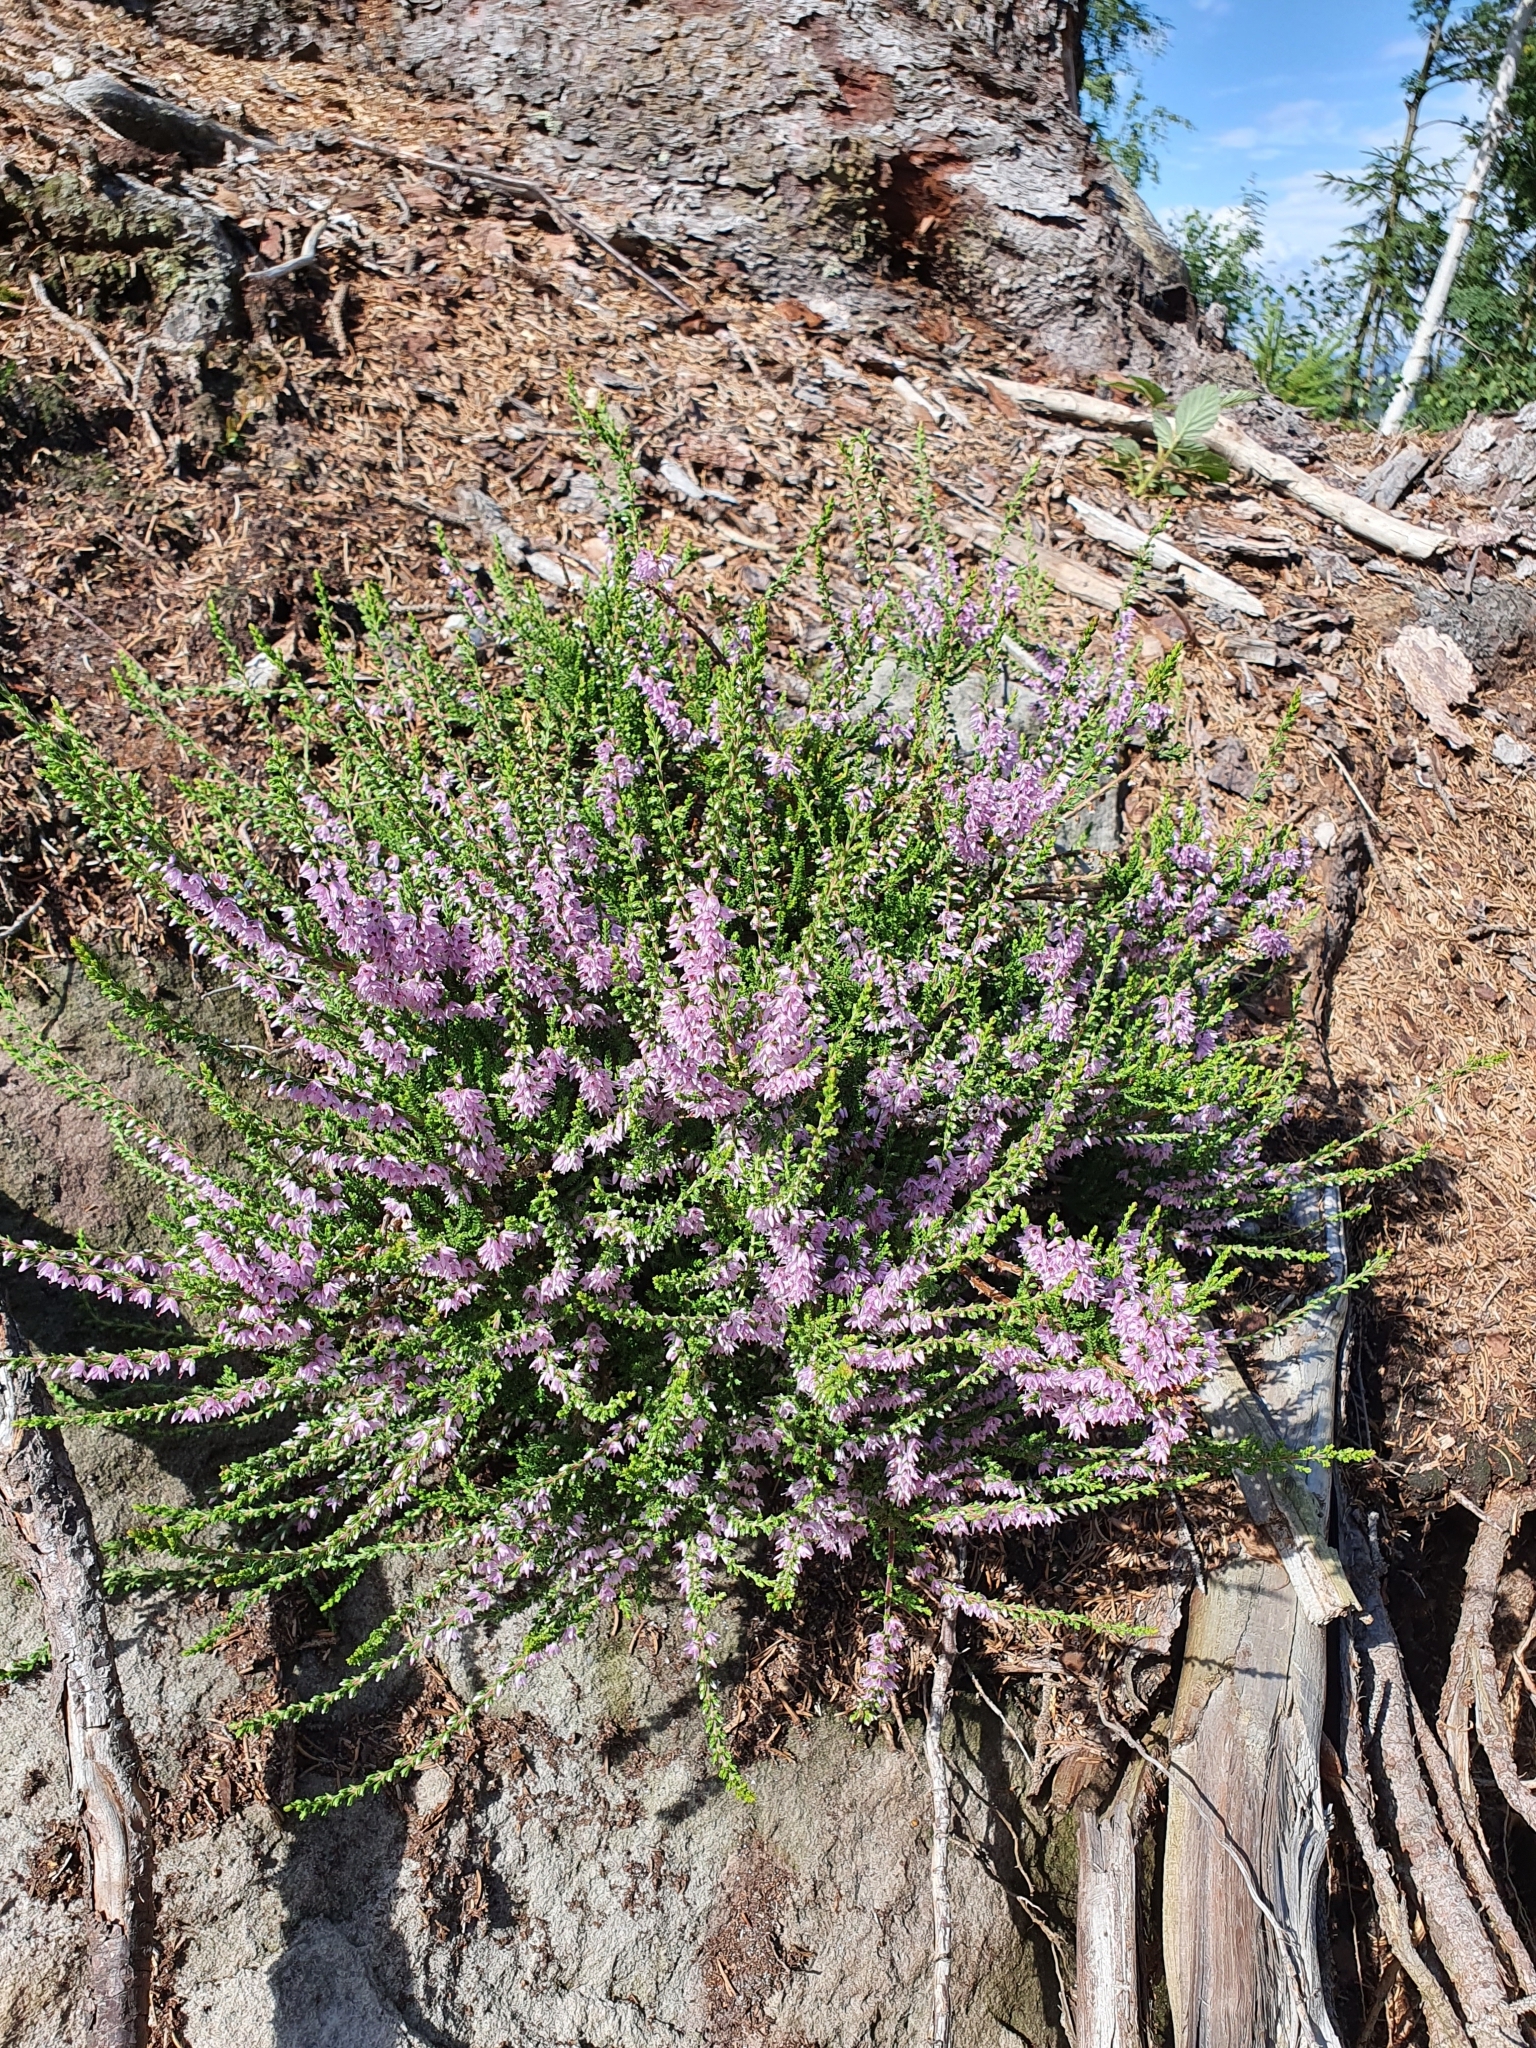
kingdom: Plantae
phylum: Tracheophyta
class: Magnoliopsida
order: Ericales
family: Ericaceae
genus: Calluna
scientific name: Calluna vulgaris
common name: Heather
